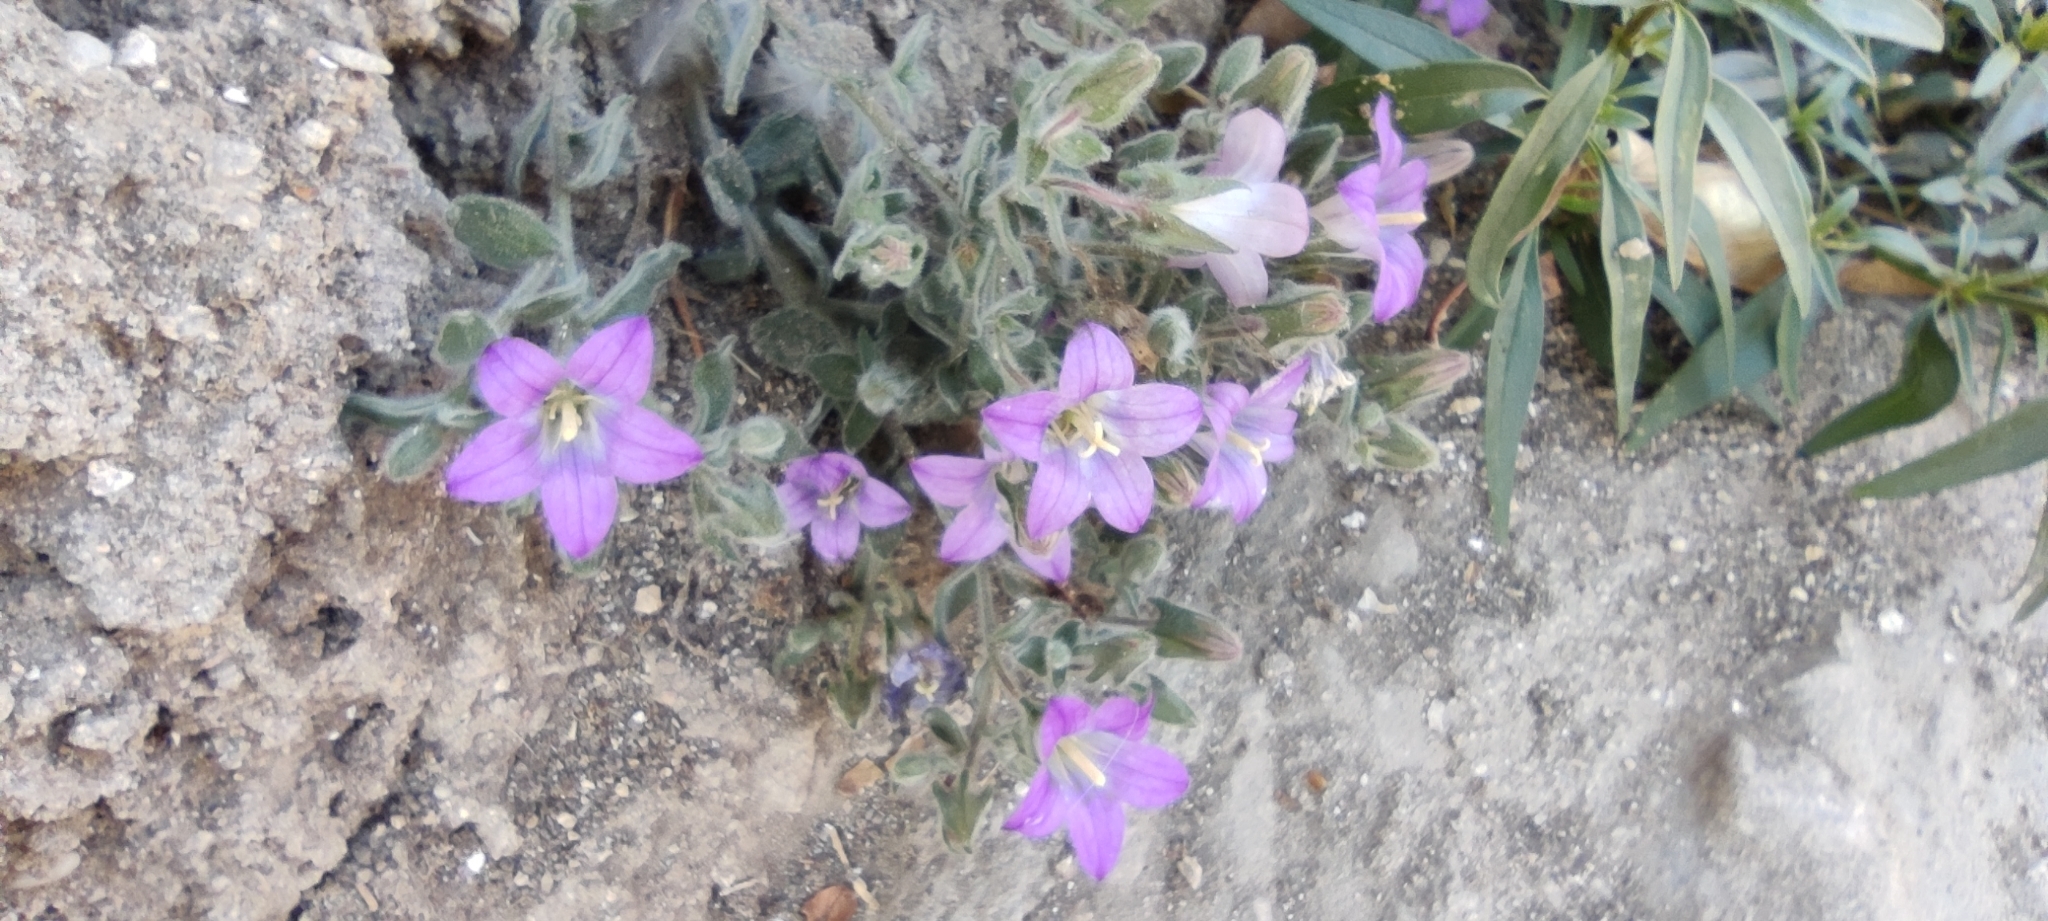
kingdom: Plantae
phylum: Tracheophyta
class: Magnoliopsida
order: Asterales
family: Campanulaceae
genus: Campanula
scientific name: Campanula mollis
